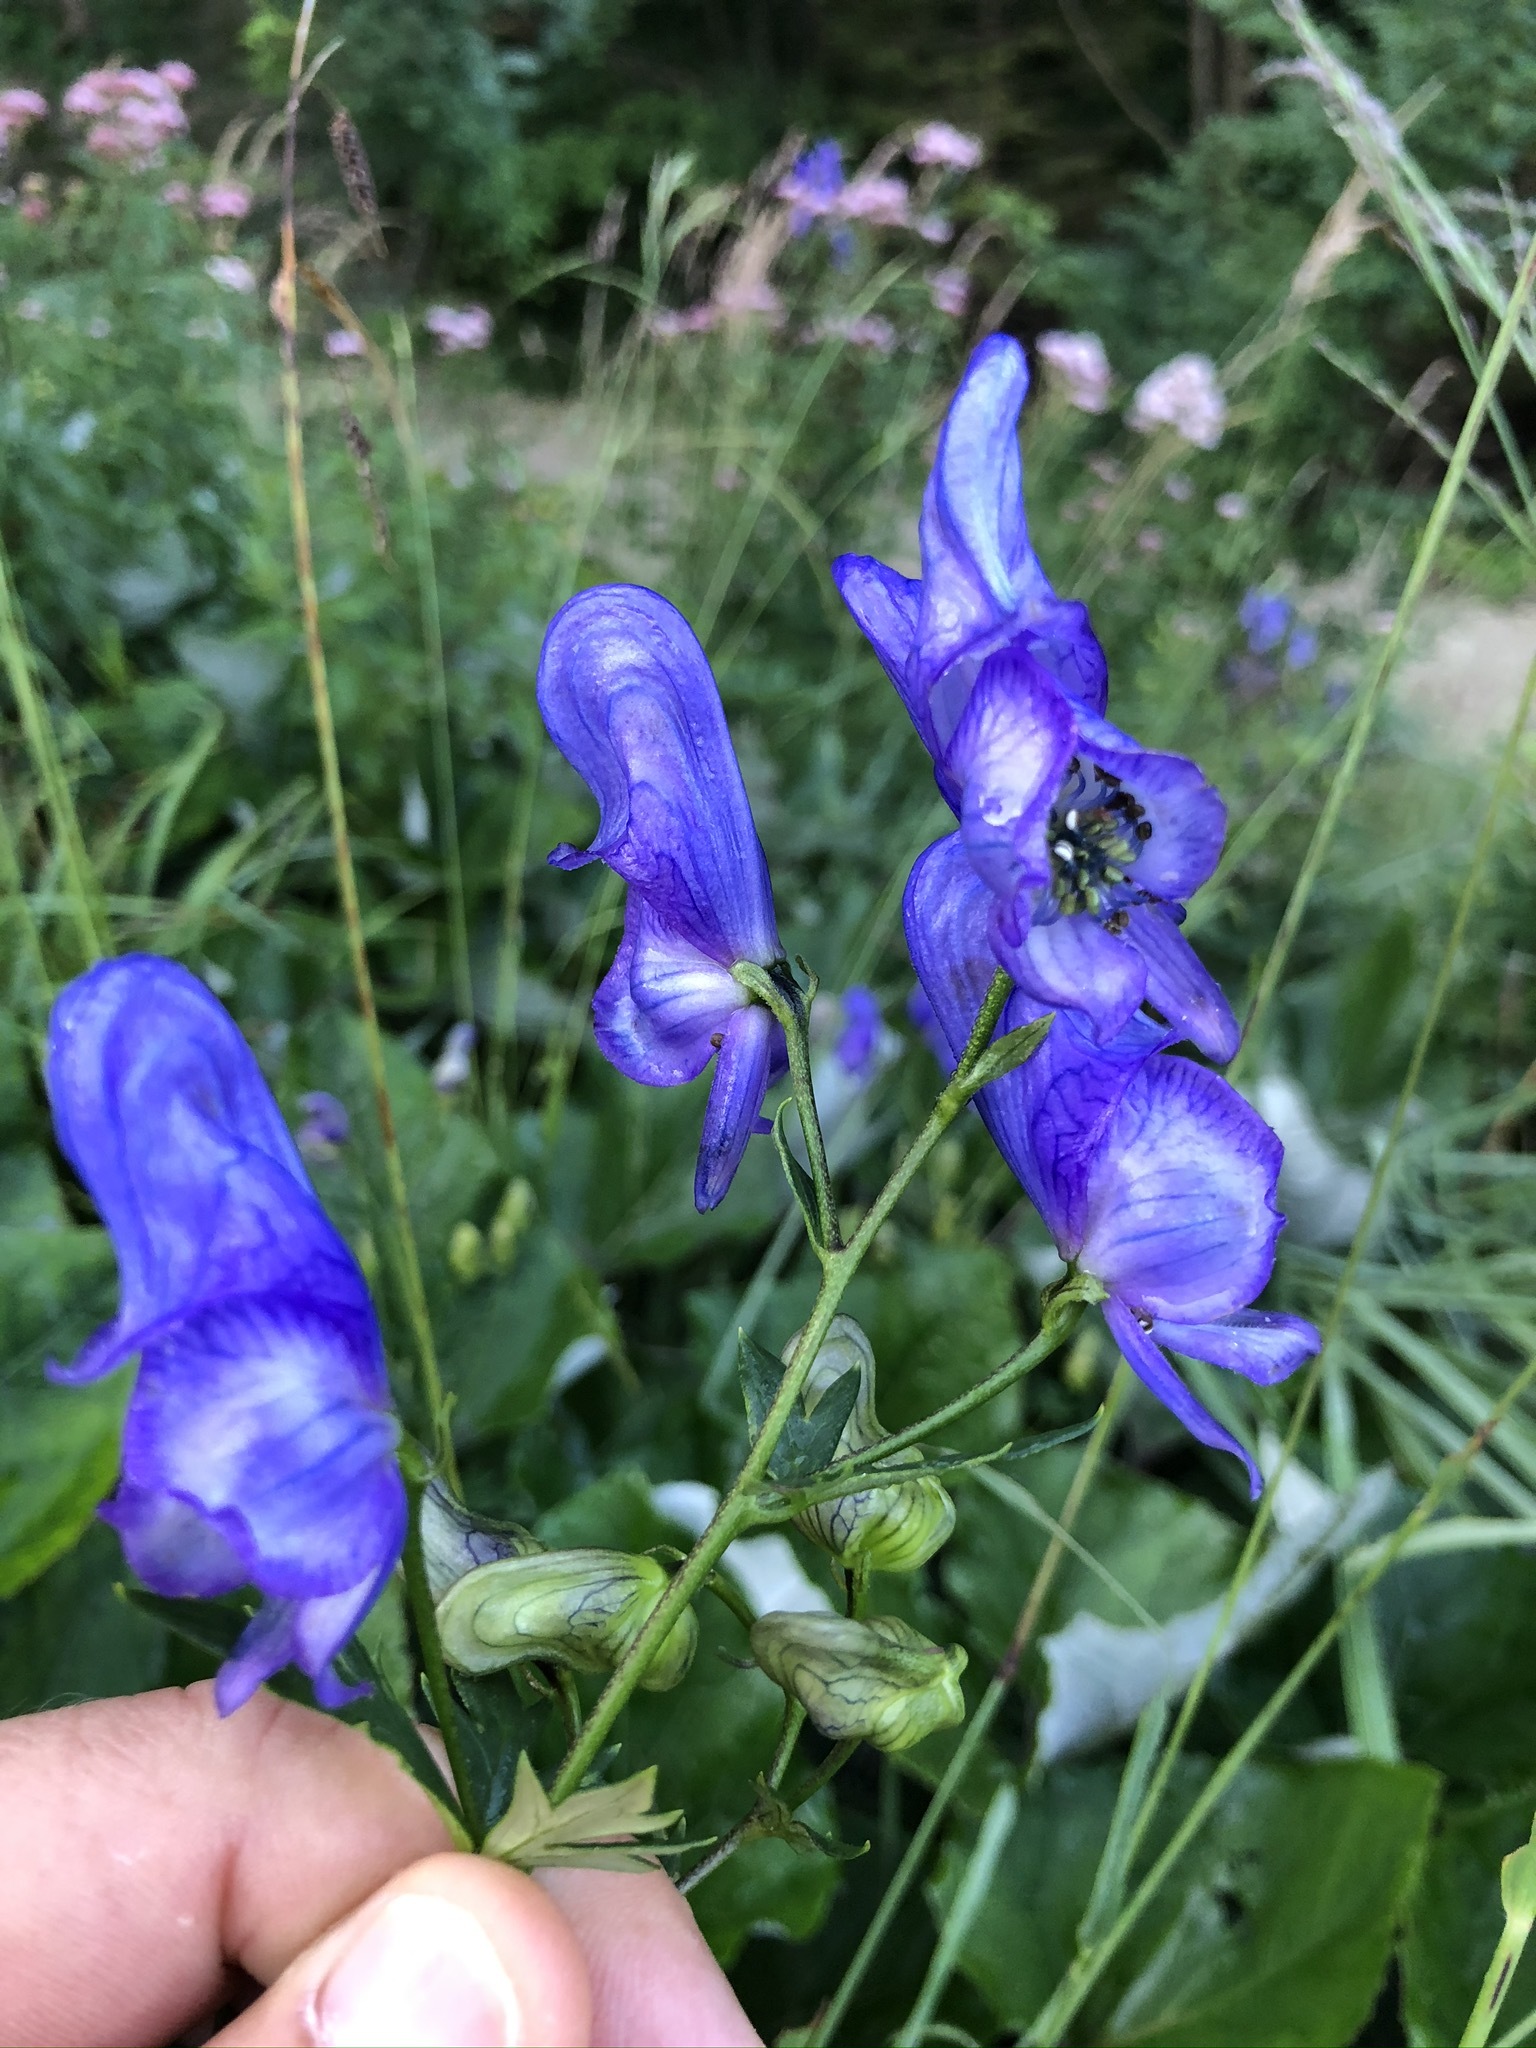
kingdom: Plantae
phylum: Tracheophyta
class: Magnoliopsida
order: Ranunculales
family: Ranunculaceae
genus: Aconitum
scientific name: Aconitum variegatum
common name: Manchurian monkshood
